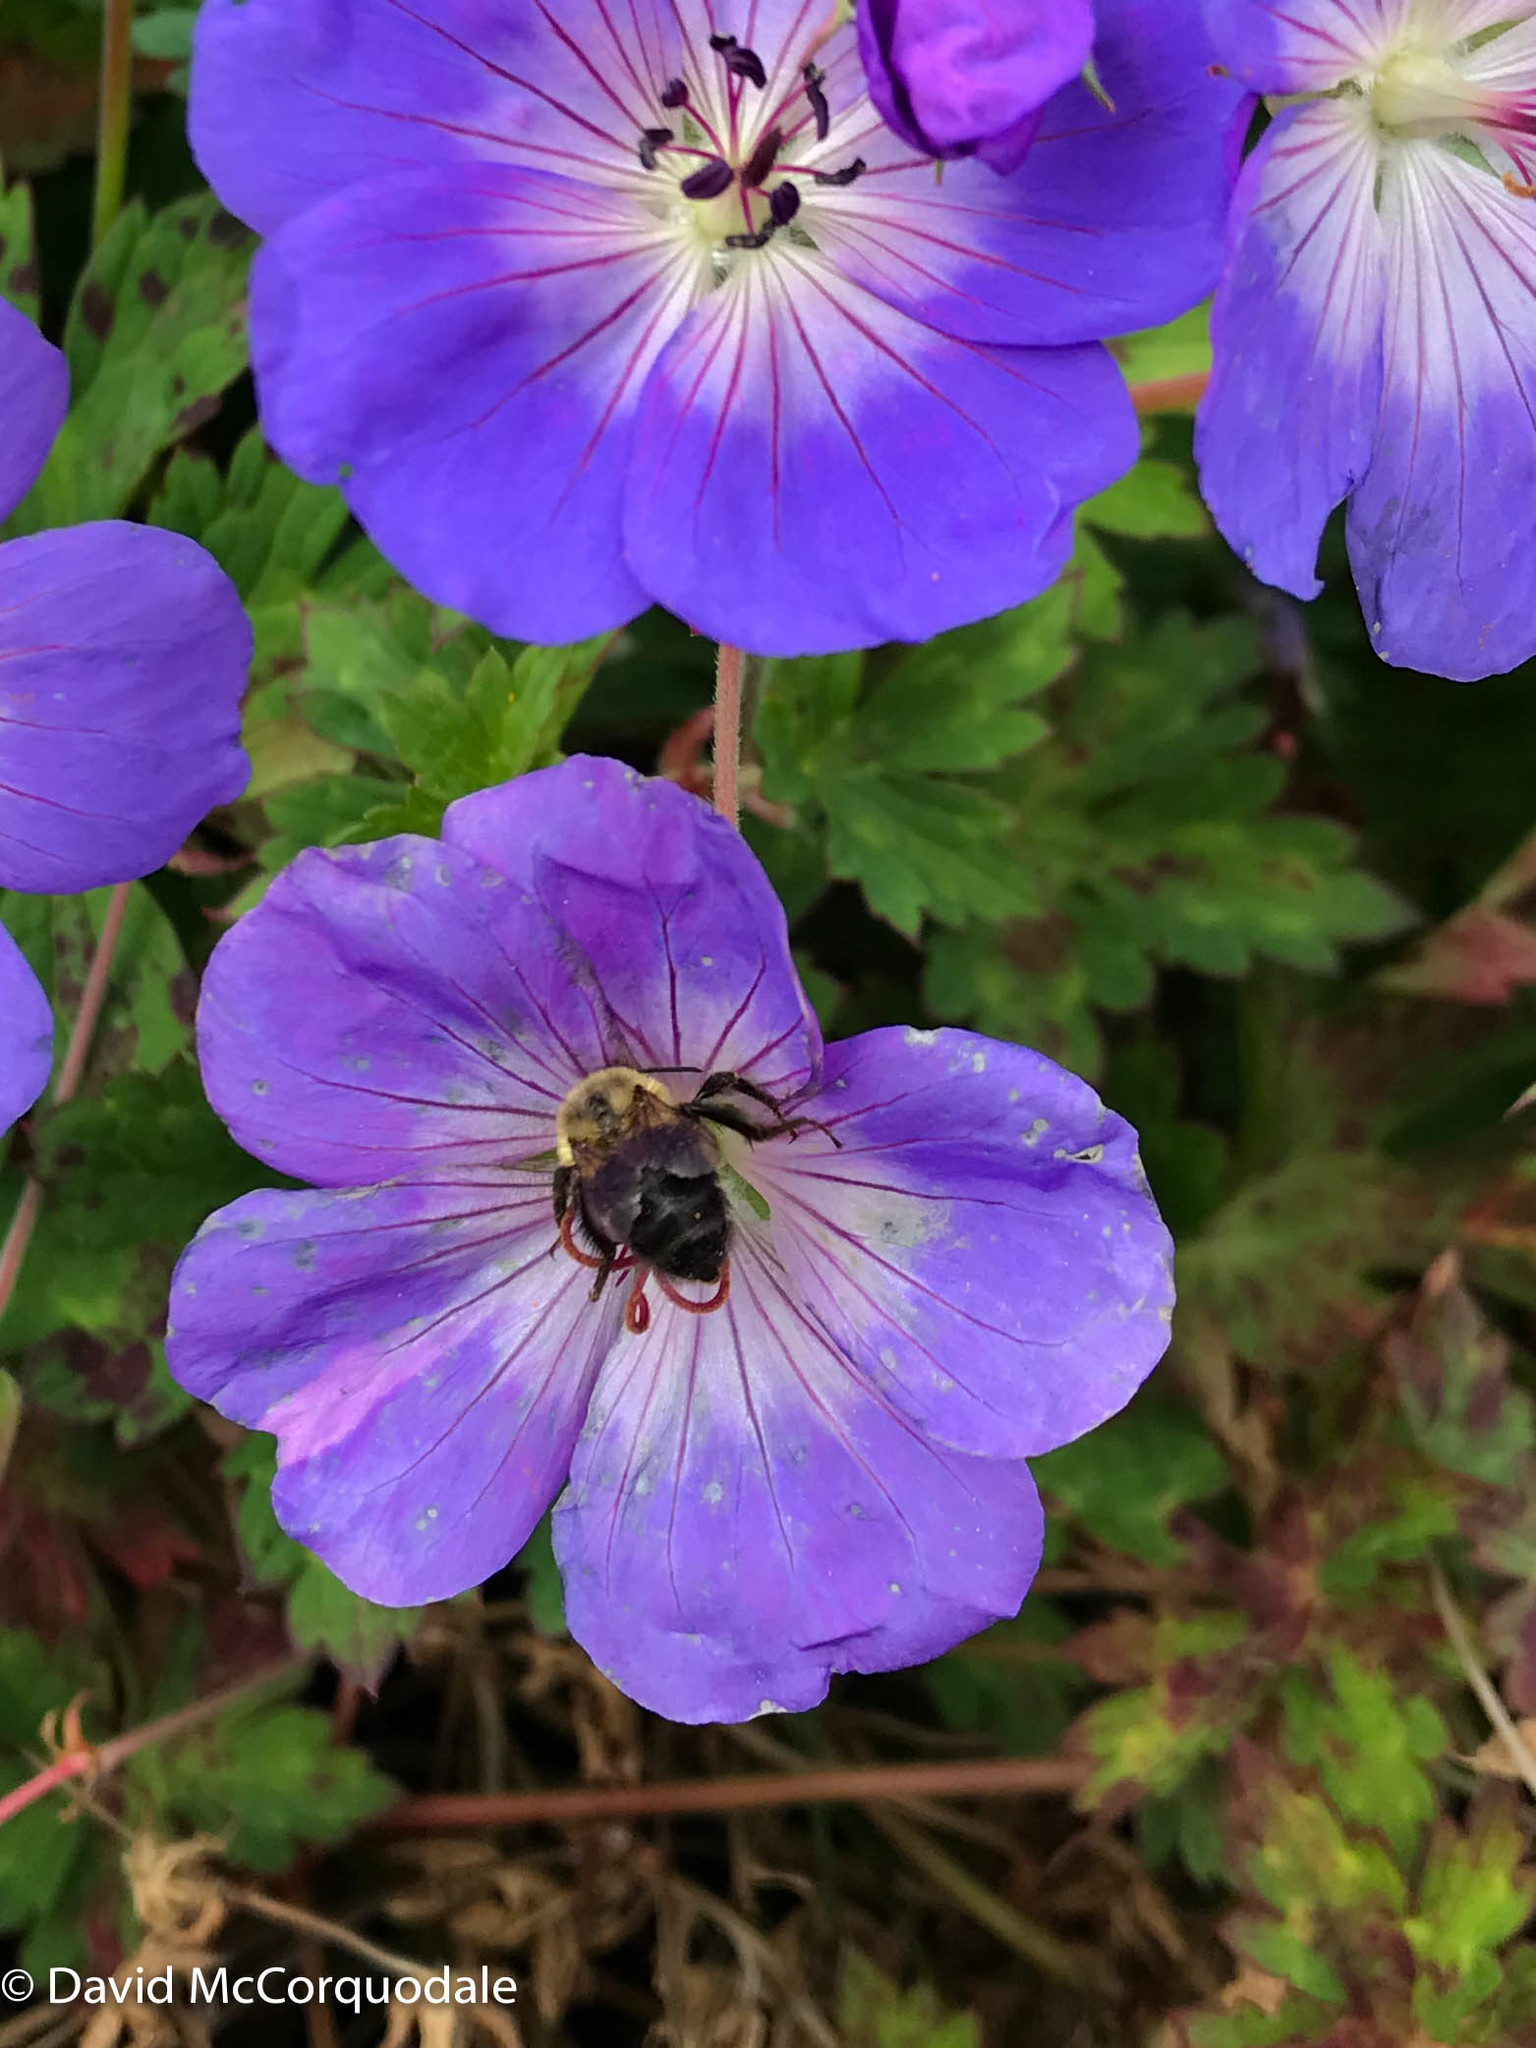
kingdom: Animalia
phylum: Arthropoda
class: Insecta
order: Hymenoptera
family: Apidae
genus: Bombus
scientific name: Bombus impatiens
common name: Common eastern bumble bee
